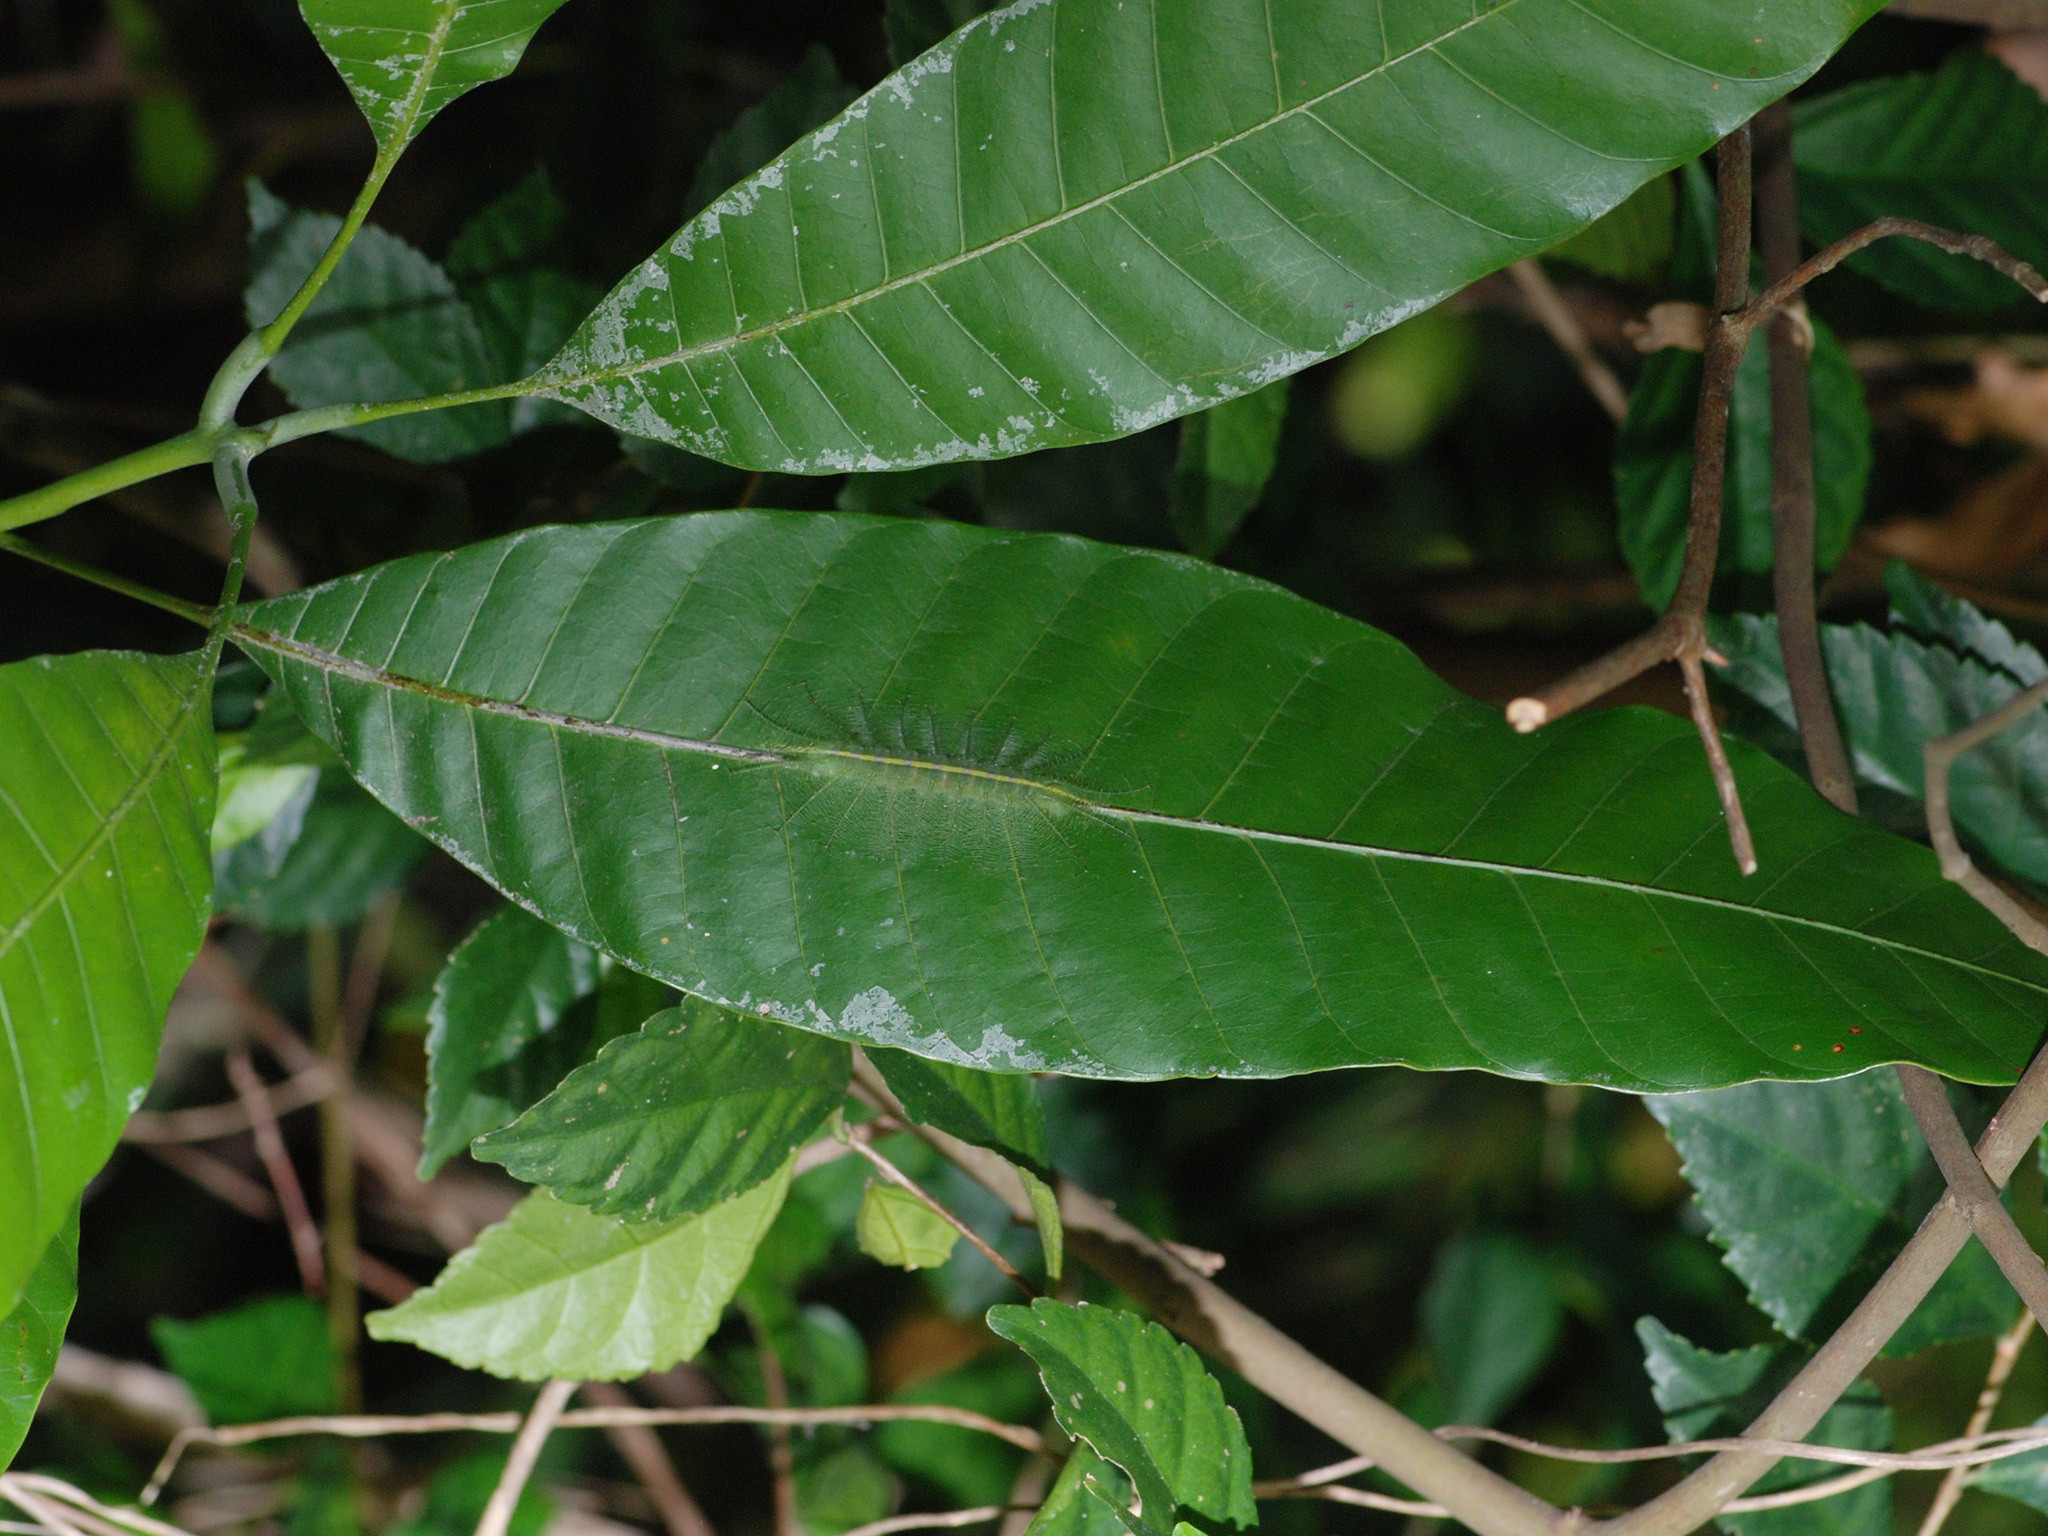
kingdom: Animalia
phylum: Arthropoda
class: Insecta
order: Lepidoptera
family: Nymphalidae
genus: Euthalia
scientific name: Euthalia aconthea
